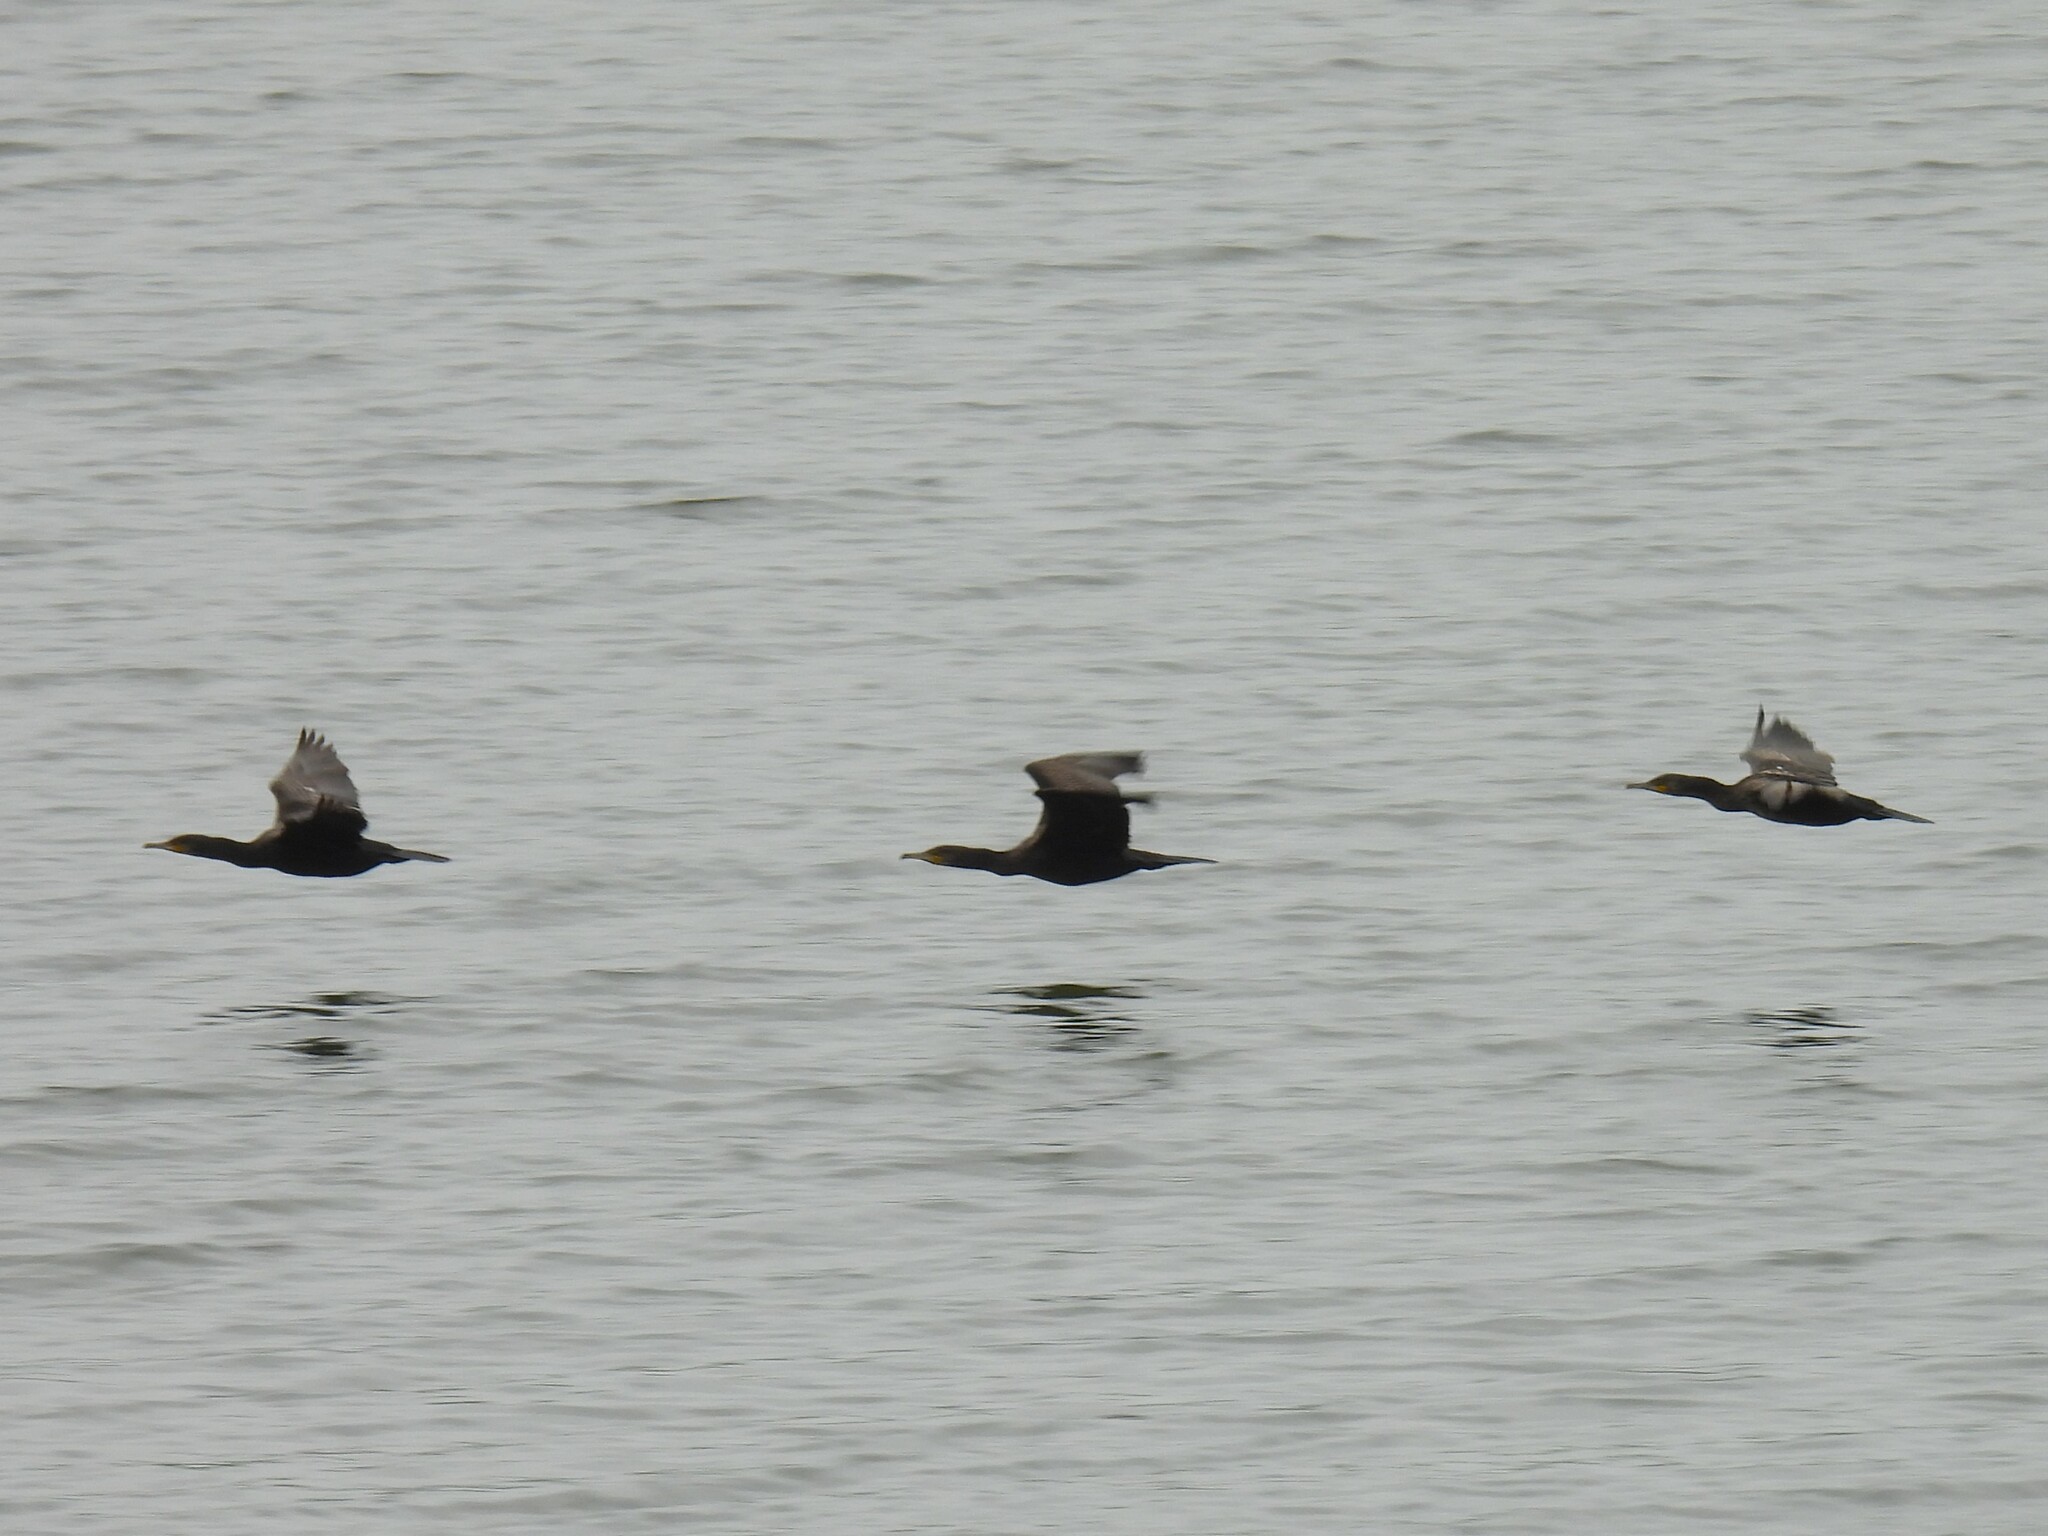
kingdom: Animalia
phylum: Chordata
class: Aves
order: Suliformes
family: Phalacrocoracidae
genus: Phalacrocorax
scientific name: Phalacrocorax carbo
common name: Great cormorant
